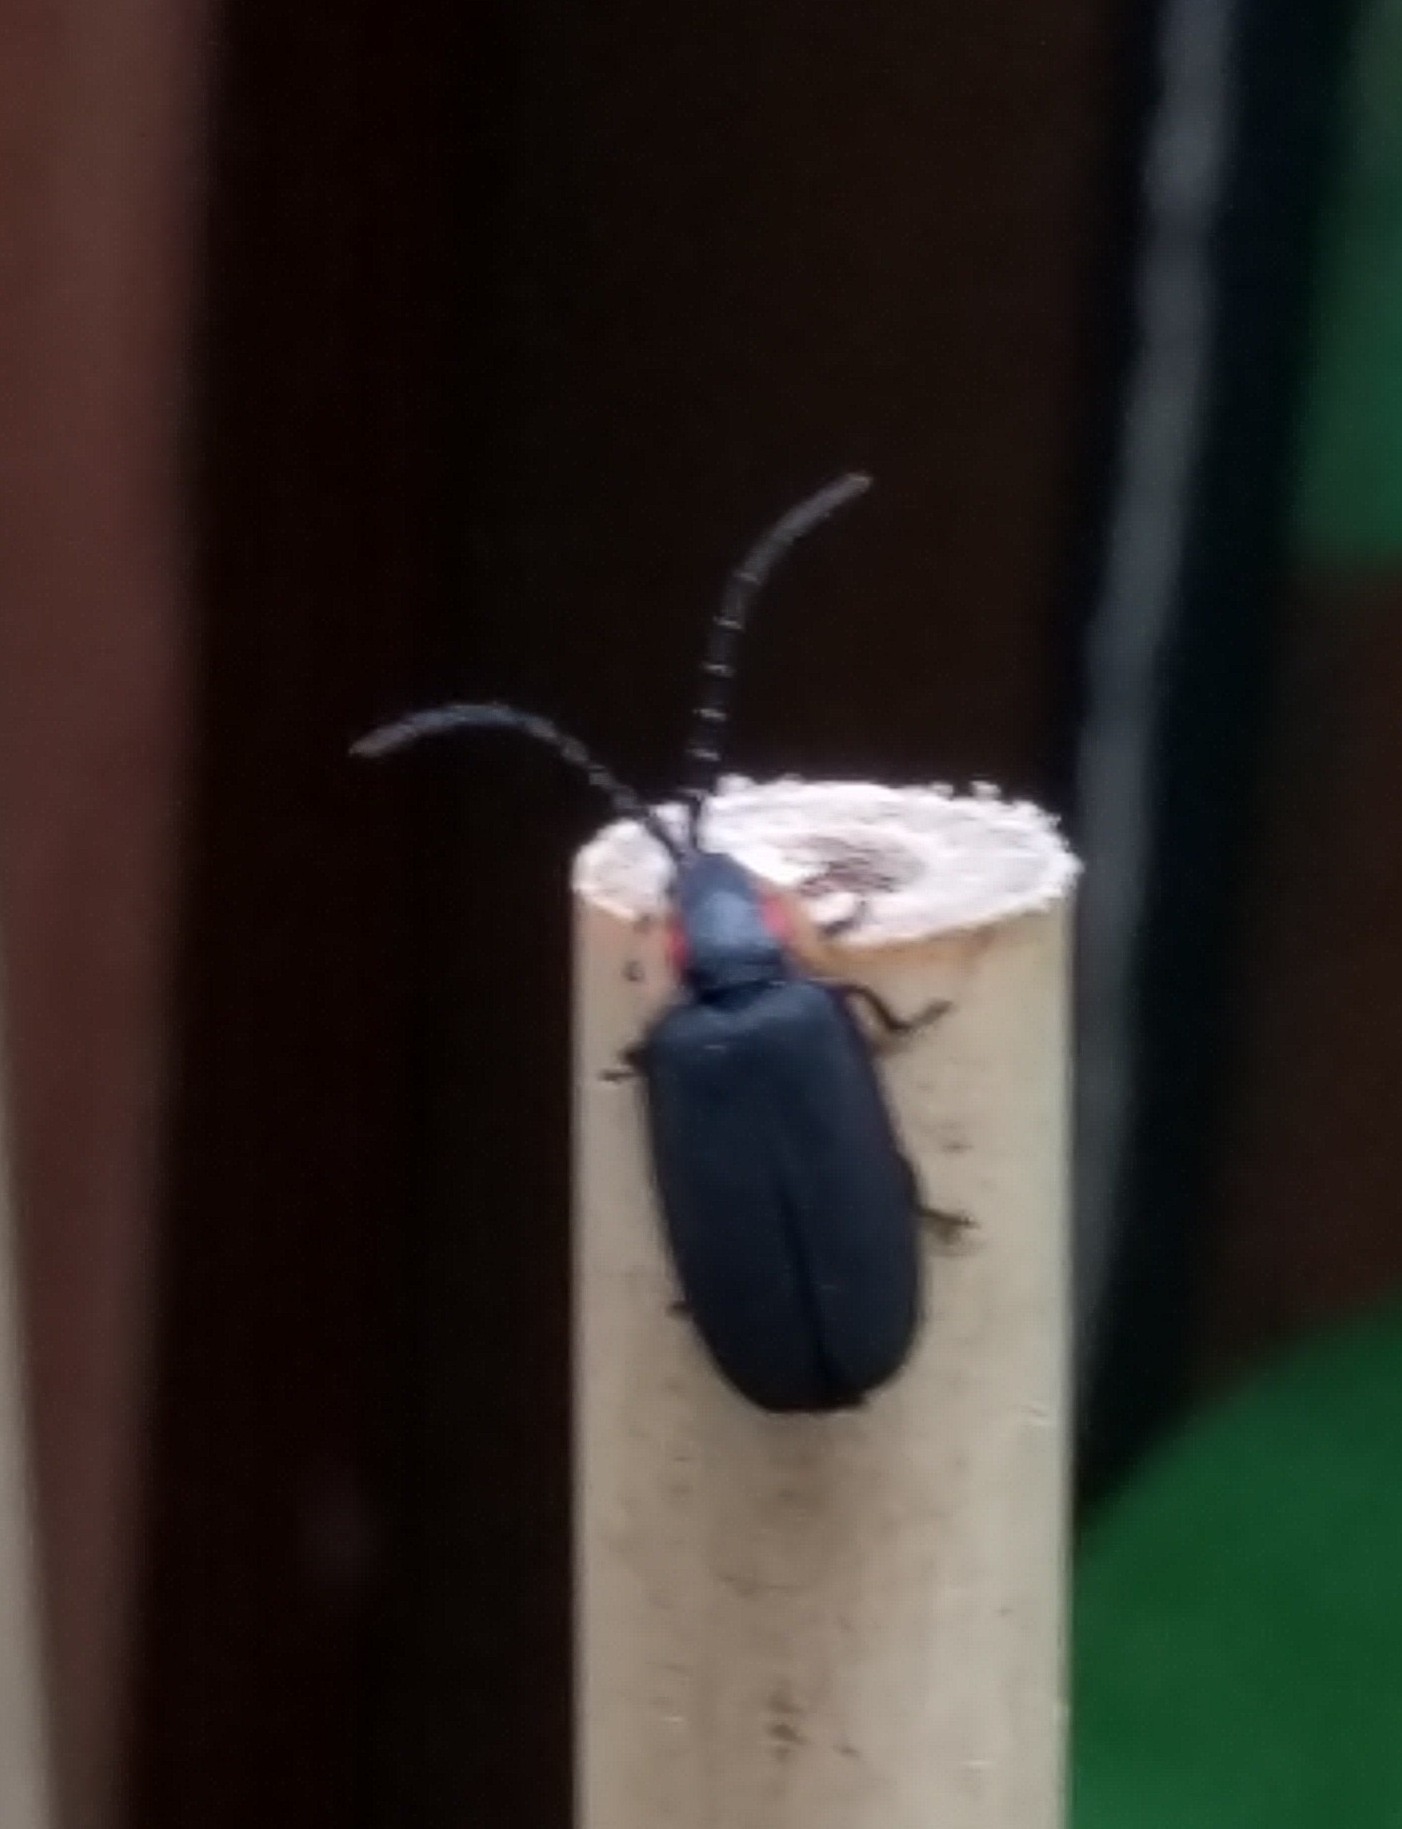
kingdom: Animalia
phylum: Arthropoda
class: Insecta
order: Coleoptera
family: Lampyridae
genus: Lucidota
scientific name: Lucidota atra
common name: Black firefly
